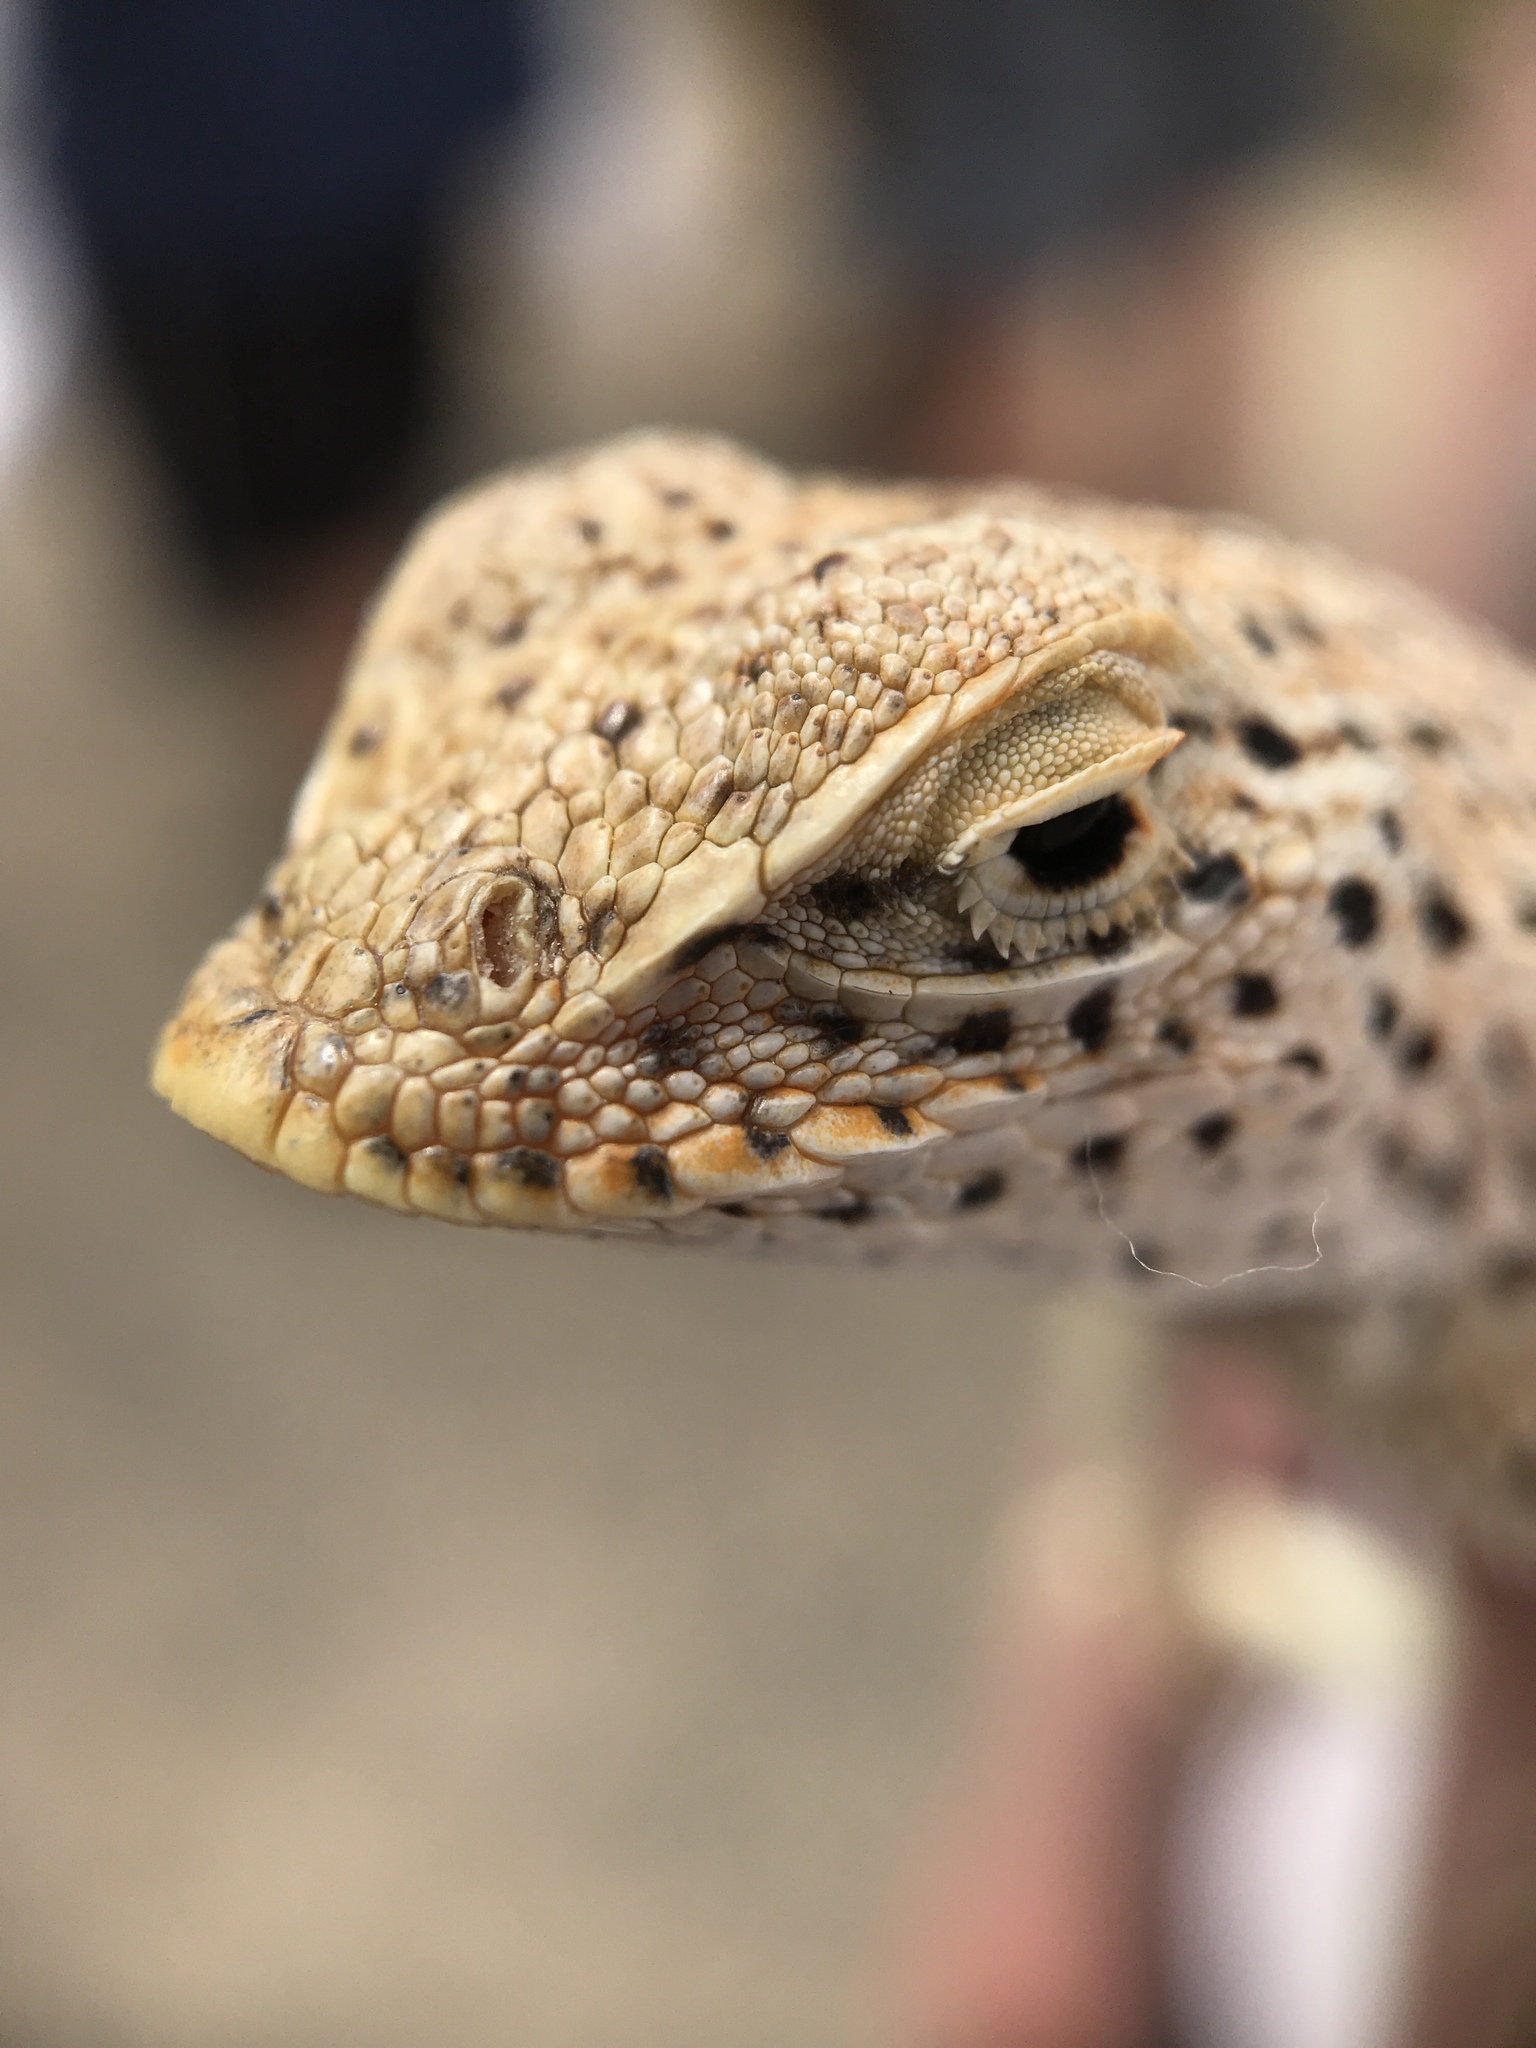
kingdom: Animalia
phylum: Chordata
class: Squamata
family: Phrynosomatidae
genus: Uma
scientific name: Uma scoparia
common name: Mojave fringe-toed lizard
